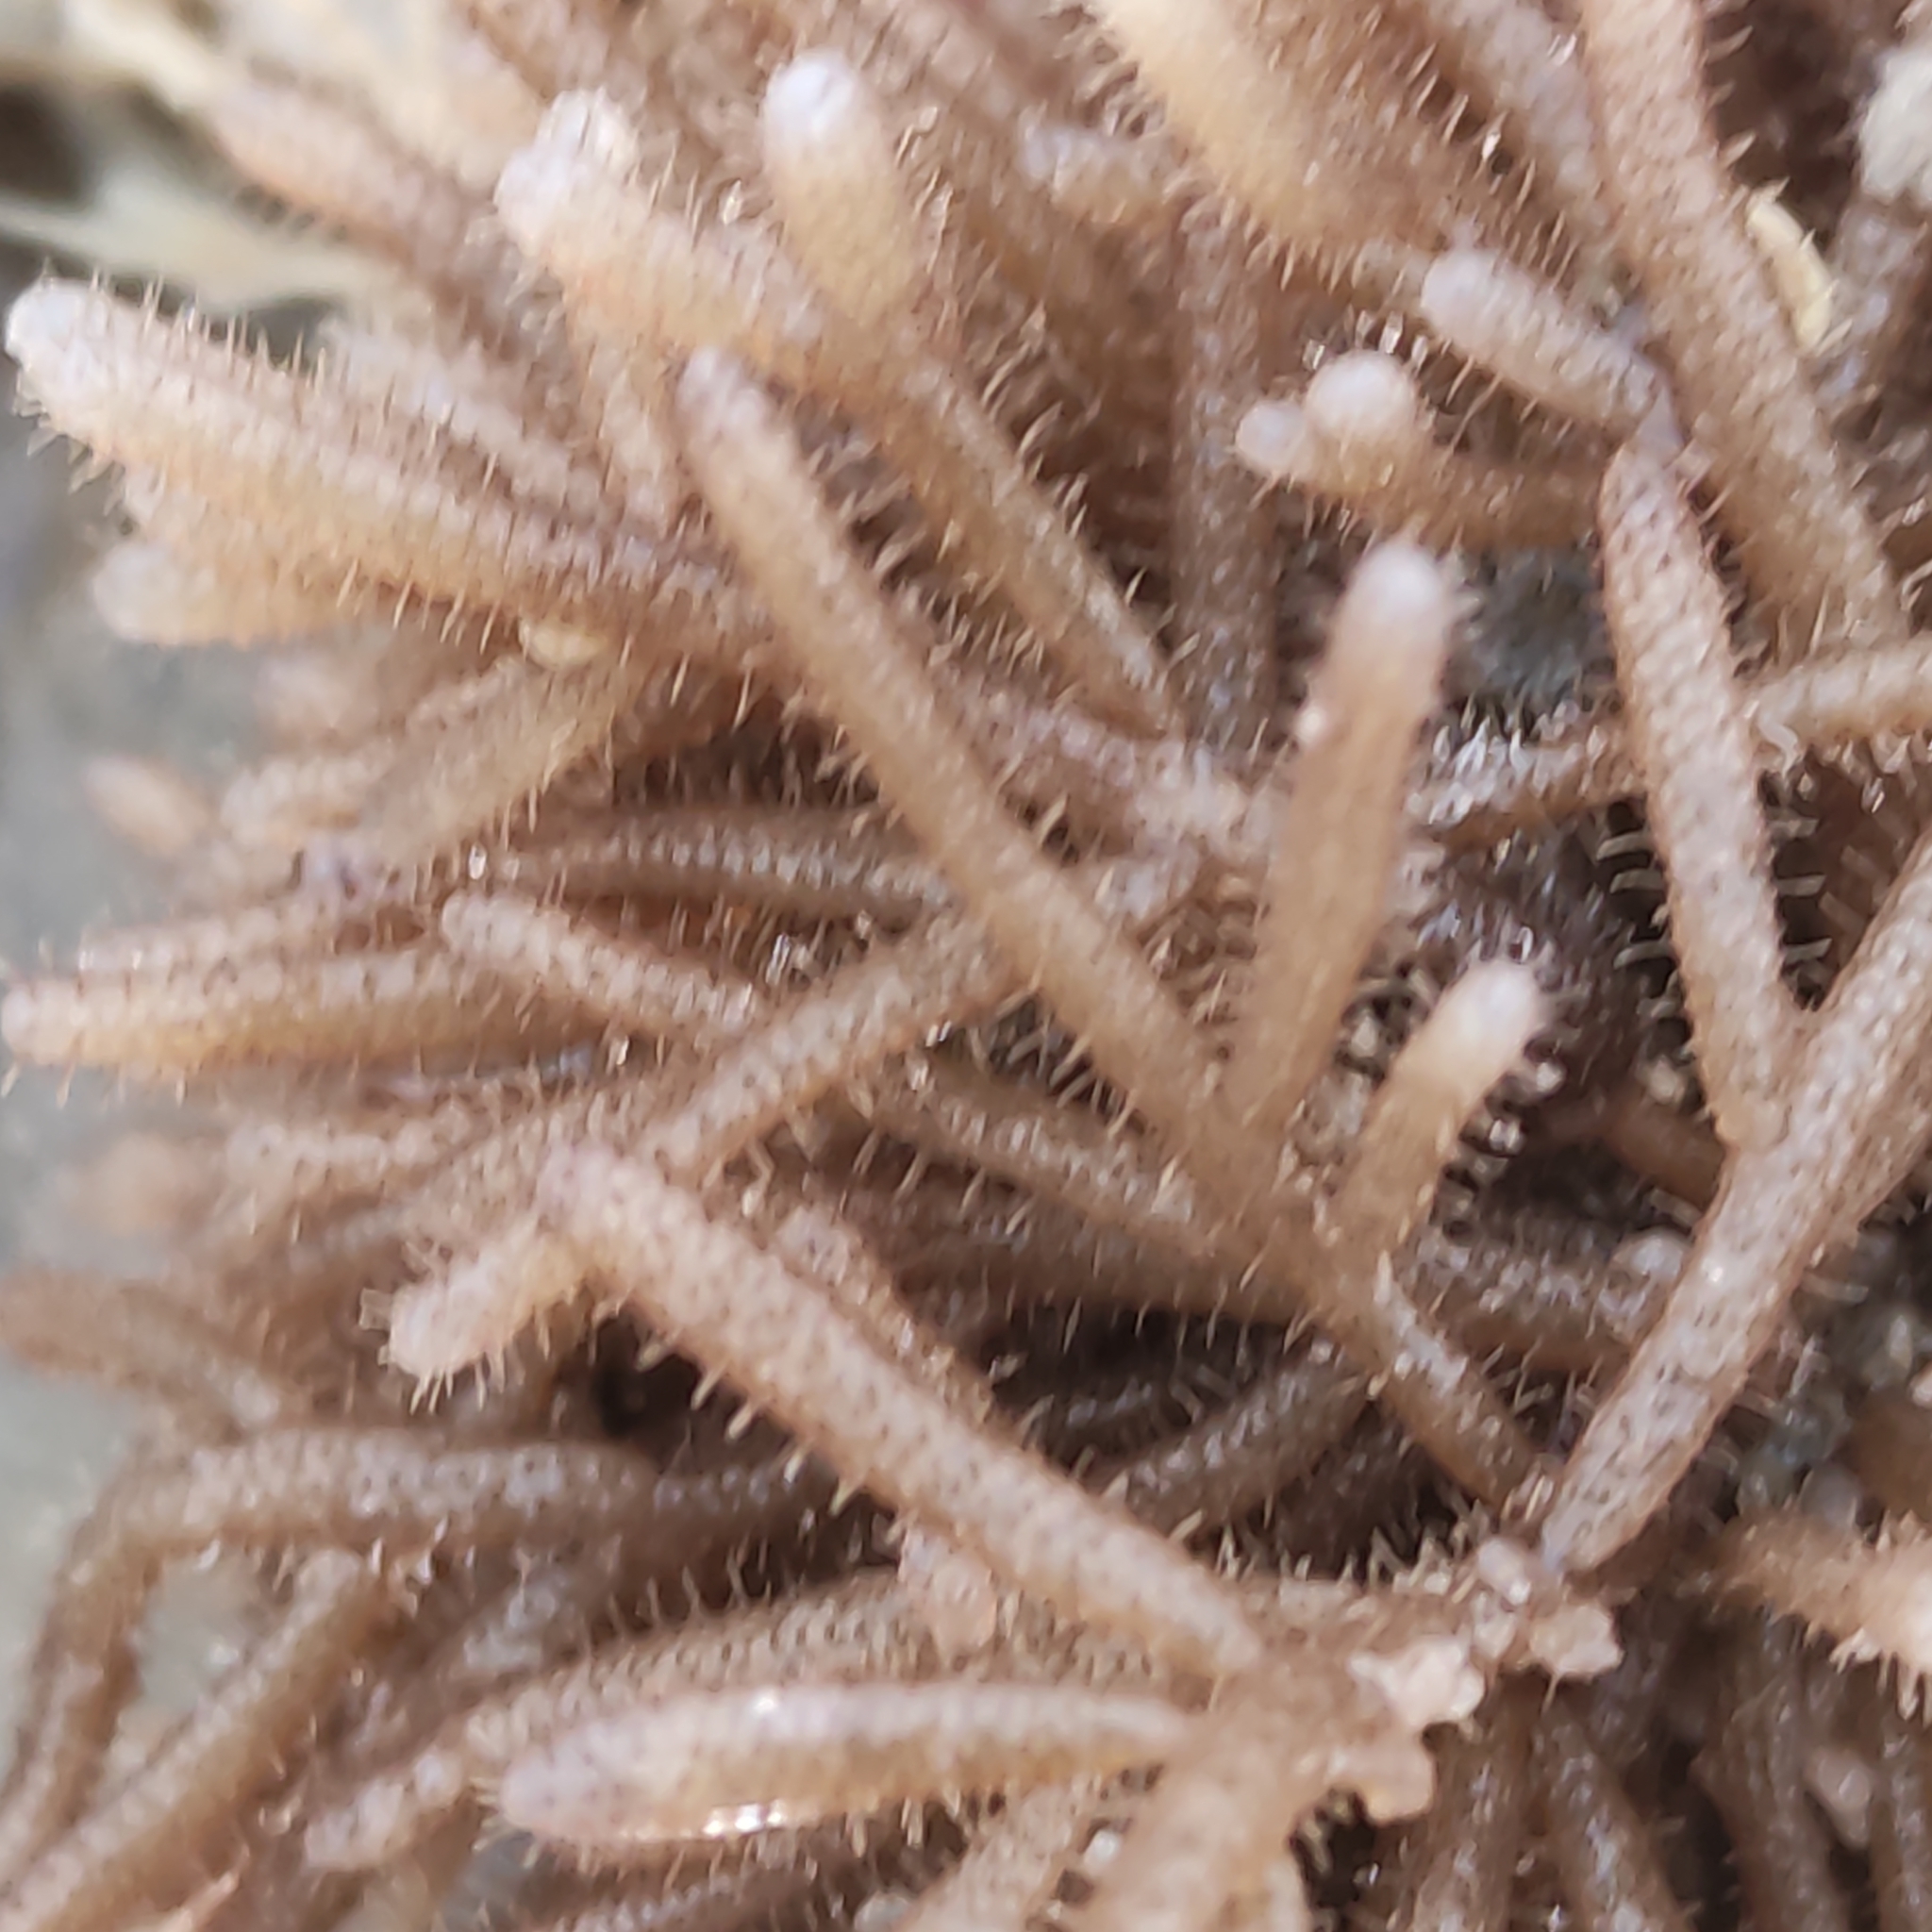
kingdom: Animalia
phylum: Bryozoa
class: Gymnolaemata
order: Ctenostomatida
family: Flustrellidridae
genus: Elzerina
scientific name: Elzerina binderi
